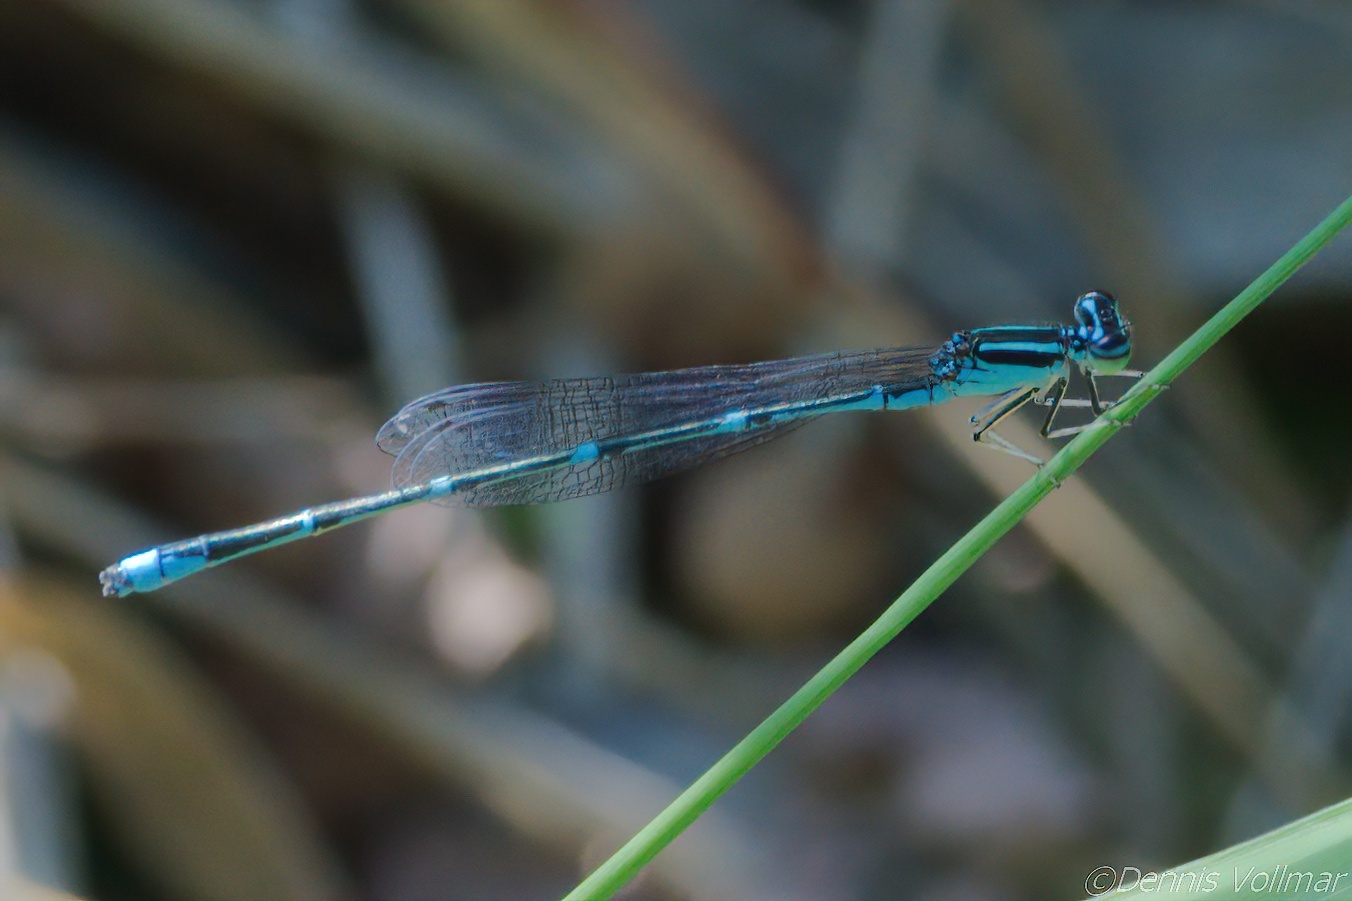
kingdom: Animalia
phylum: Arthropoda
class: Insecta
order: Odonata
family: Coenagrionidae
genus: Enallagma
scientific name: Enallagma exsulans
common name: Stream bluet
